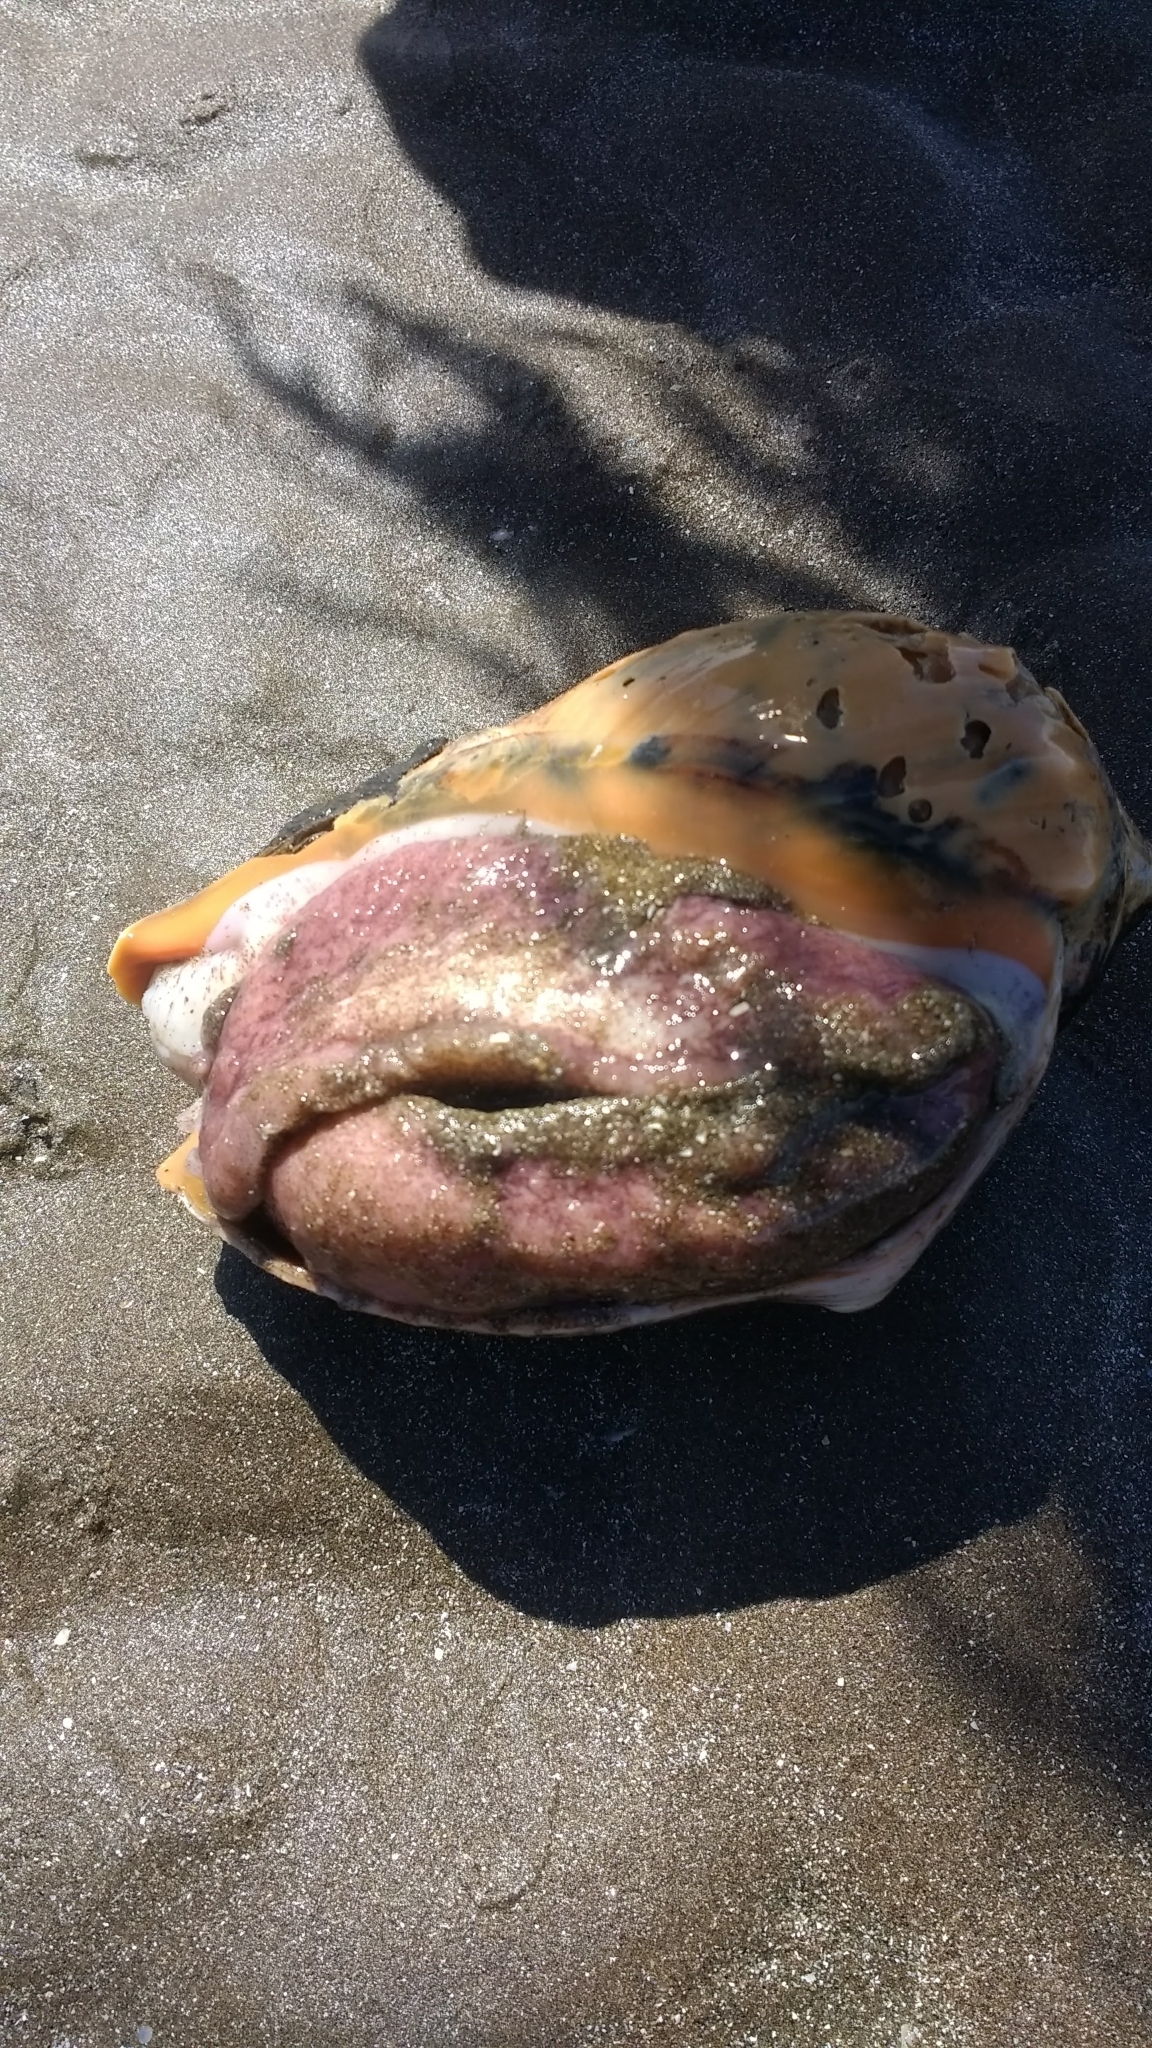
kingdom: Animalia
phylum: Mollusca
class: Gastropoda
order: Neogastropoda
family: Volutidae
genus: Pachycymbiola
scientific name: Pachycymbiola brasiliana
